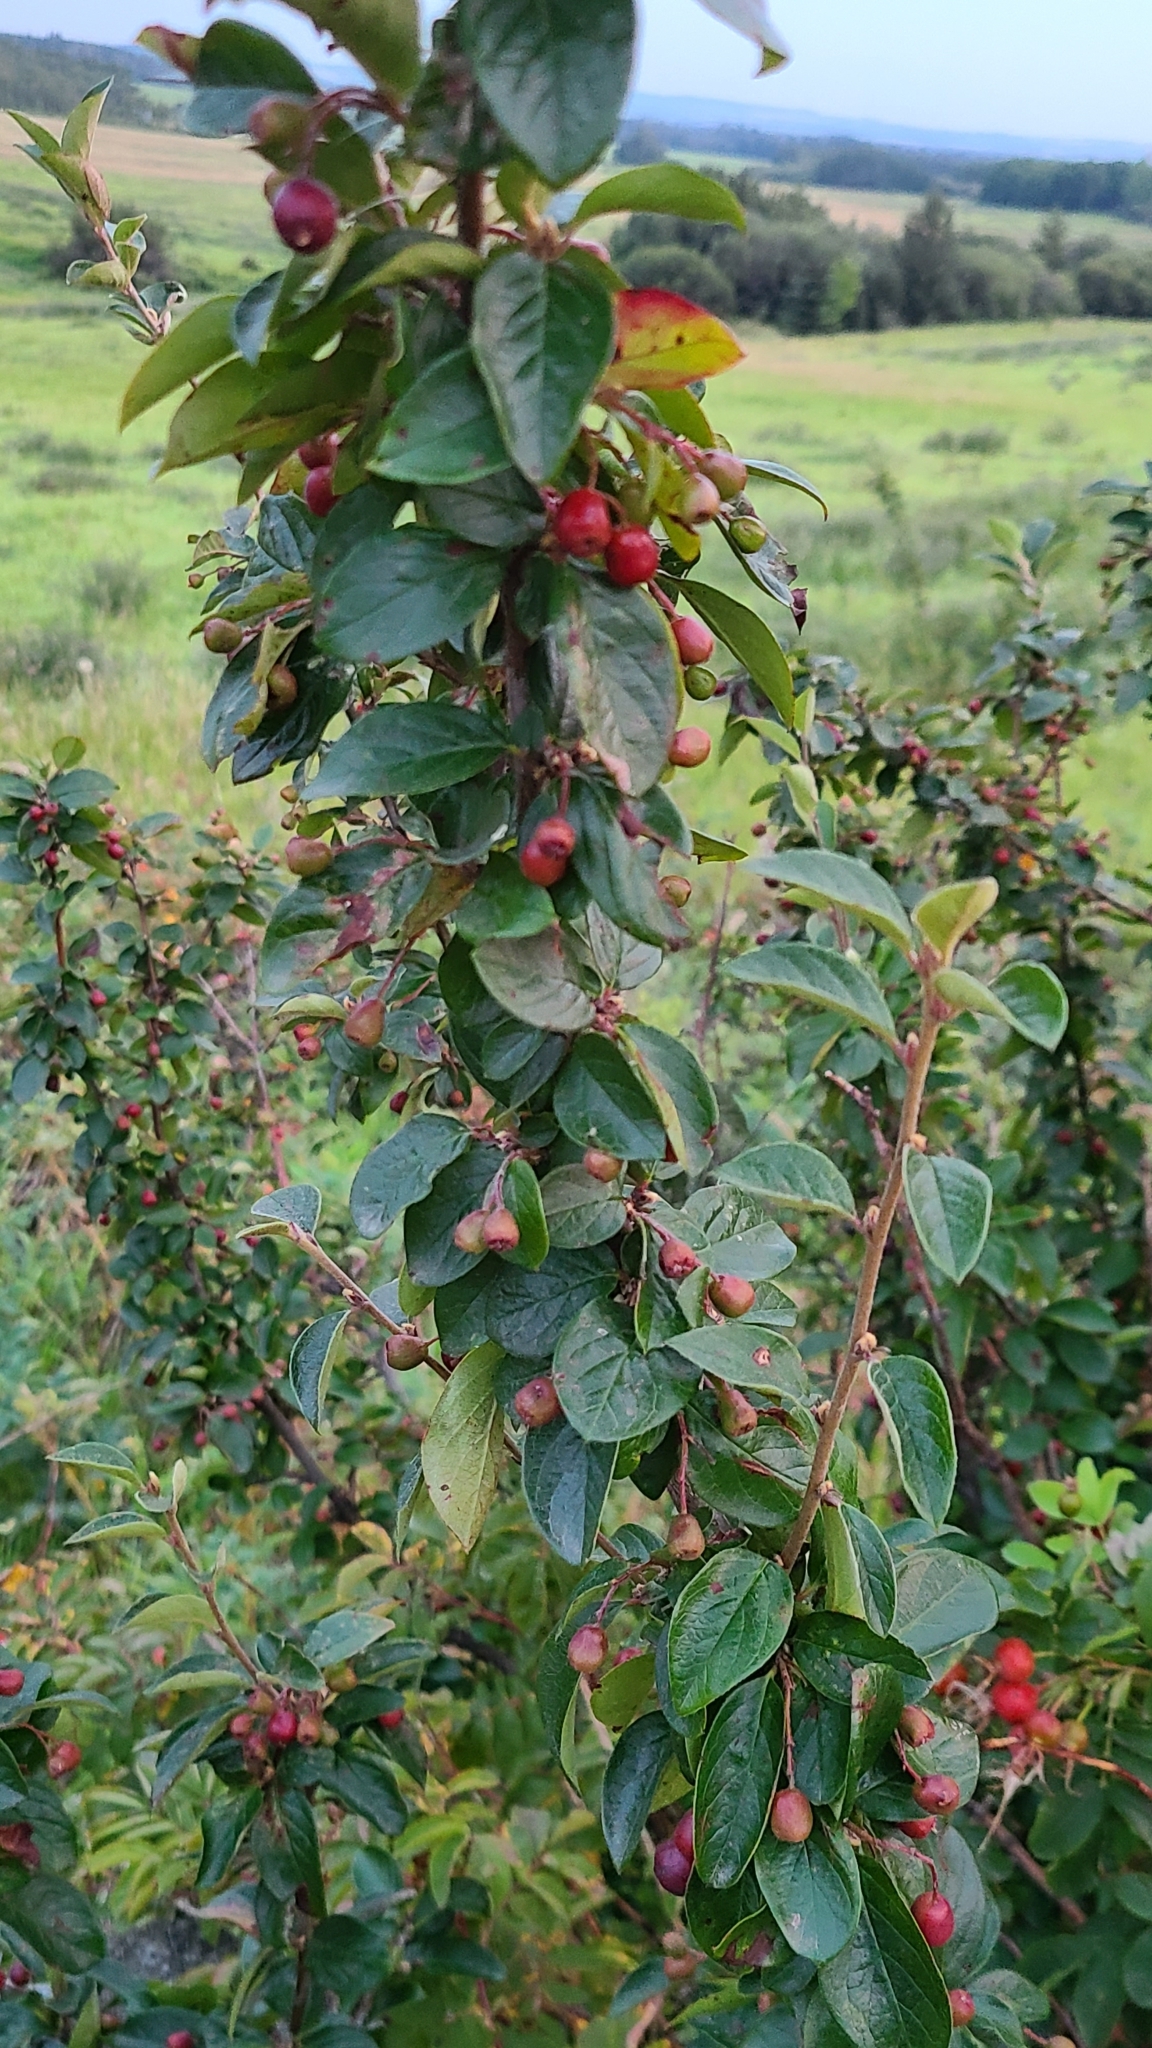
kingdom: Plantae
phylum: Tracheophyta
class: Magnoliopsida
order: Rosales
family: Rosaceae
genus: Cotoneaster
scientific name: Cotoneaster acutifolius
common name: Peking cotoneaster
